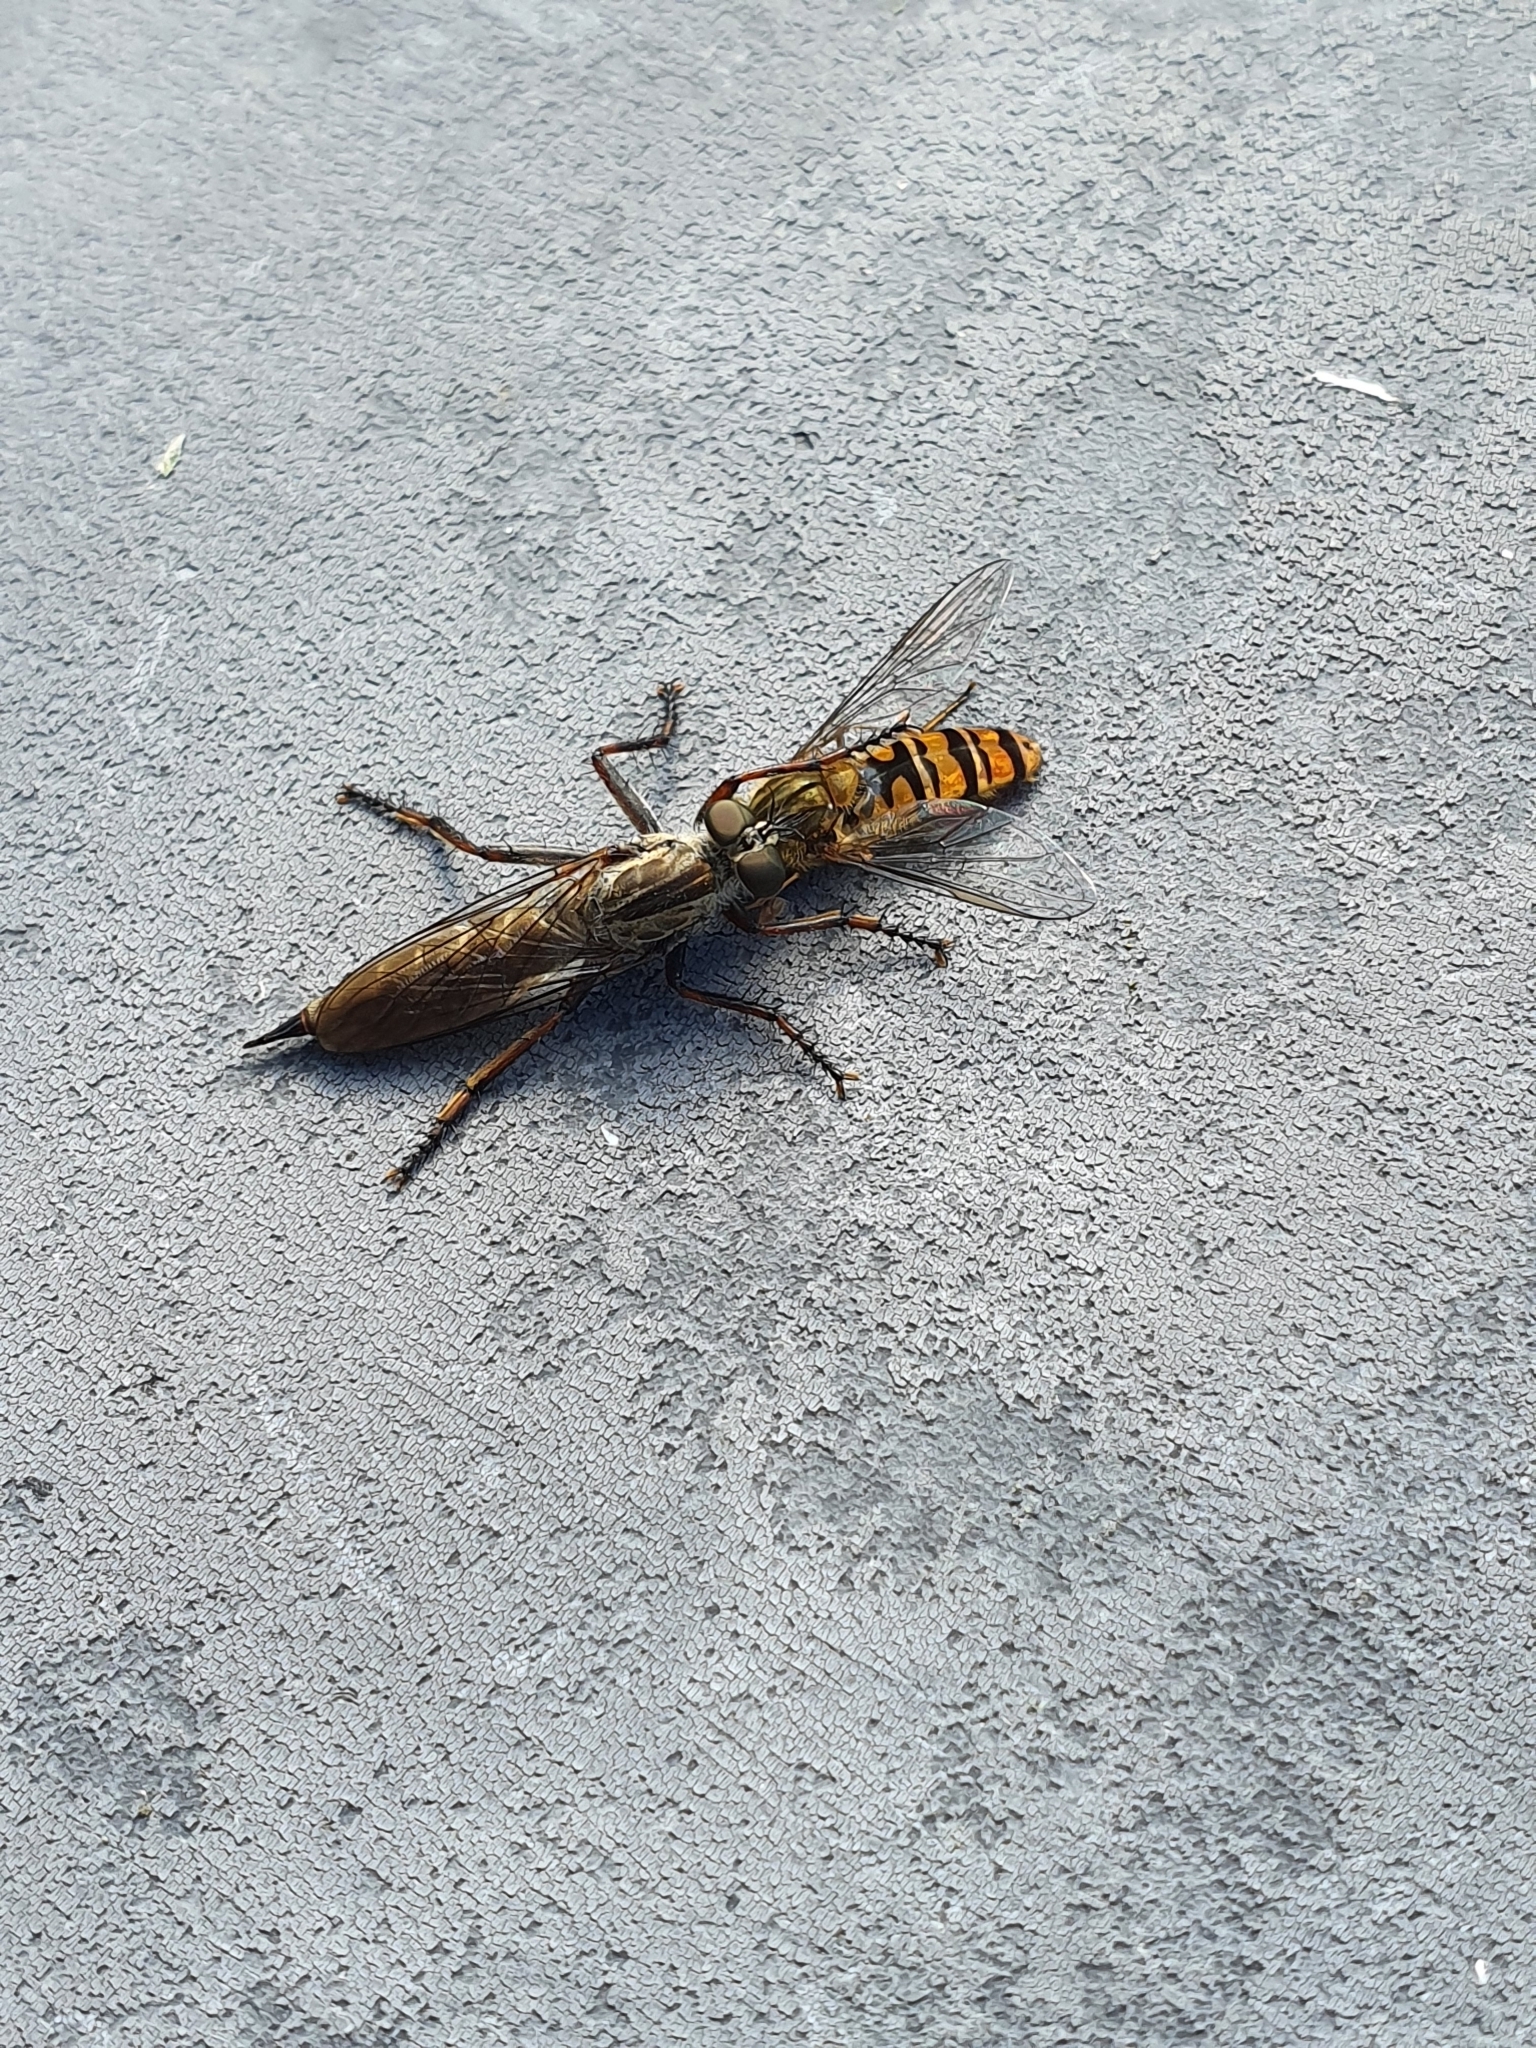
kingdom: Animalia
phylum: Arthropoda
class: Insecta
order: Diptera
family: Syrphidae
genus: Episyrphus
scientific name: Episyrphus balteatus
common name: Marmalade hoverfly
